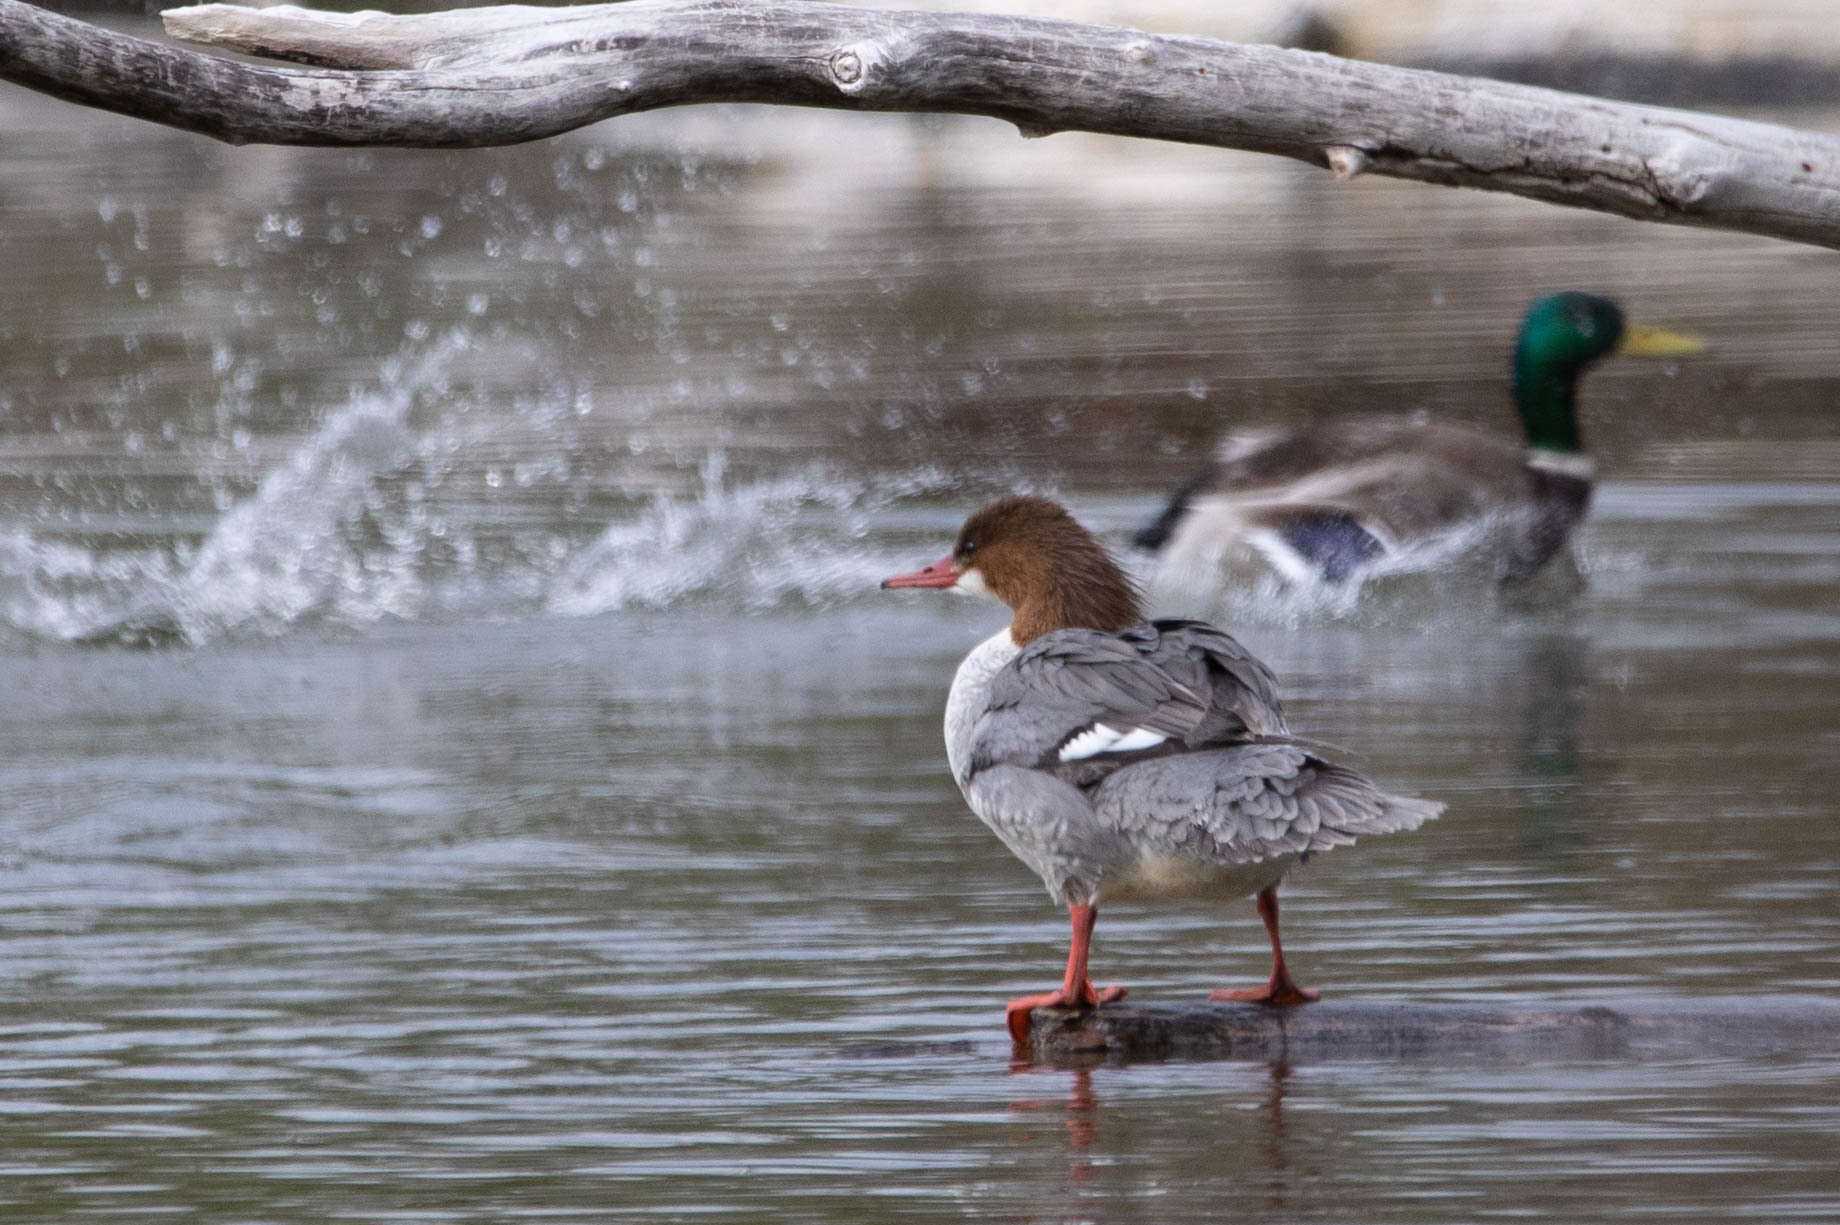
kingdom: Animalia
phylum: Chordata
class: Aves
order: Anseriformes
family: Anatidae
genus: Mergus
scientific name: Mergus merganser
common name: Common merganser
